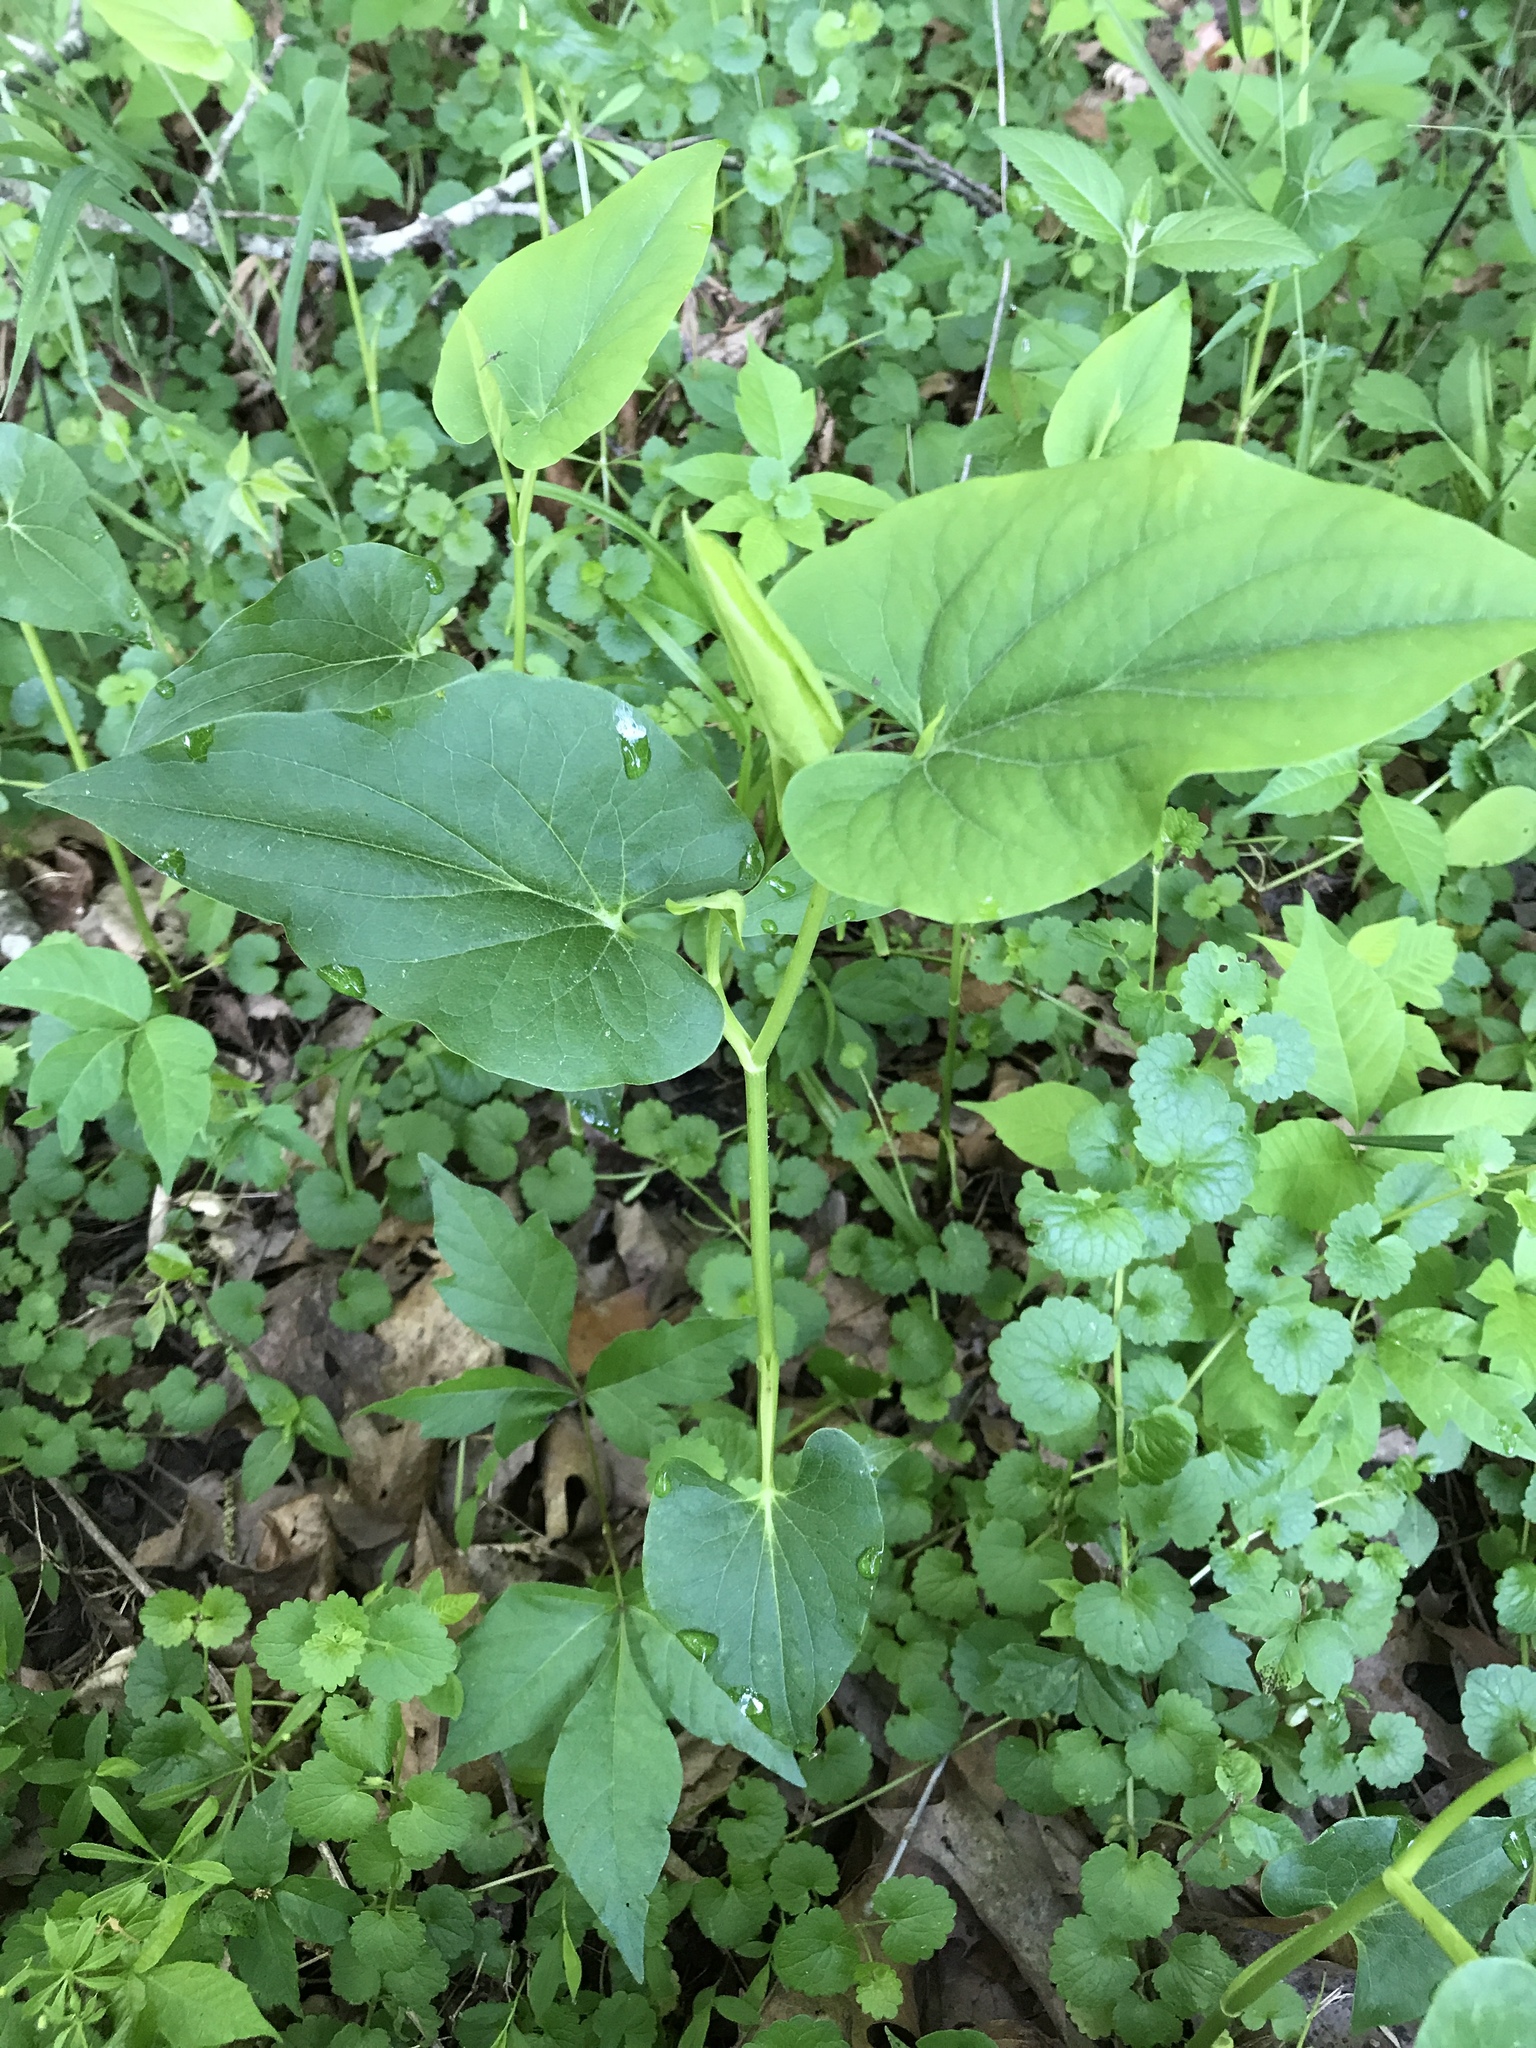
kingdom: Plantae
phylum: Tracheophyta
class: Magnoliopsida
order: Piperales
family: Saururaceae
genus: Saururus
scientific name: Saururus cernuus
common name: Lizard's-tail
